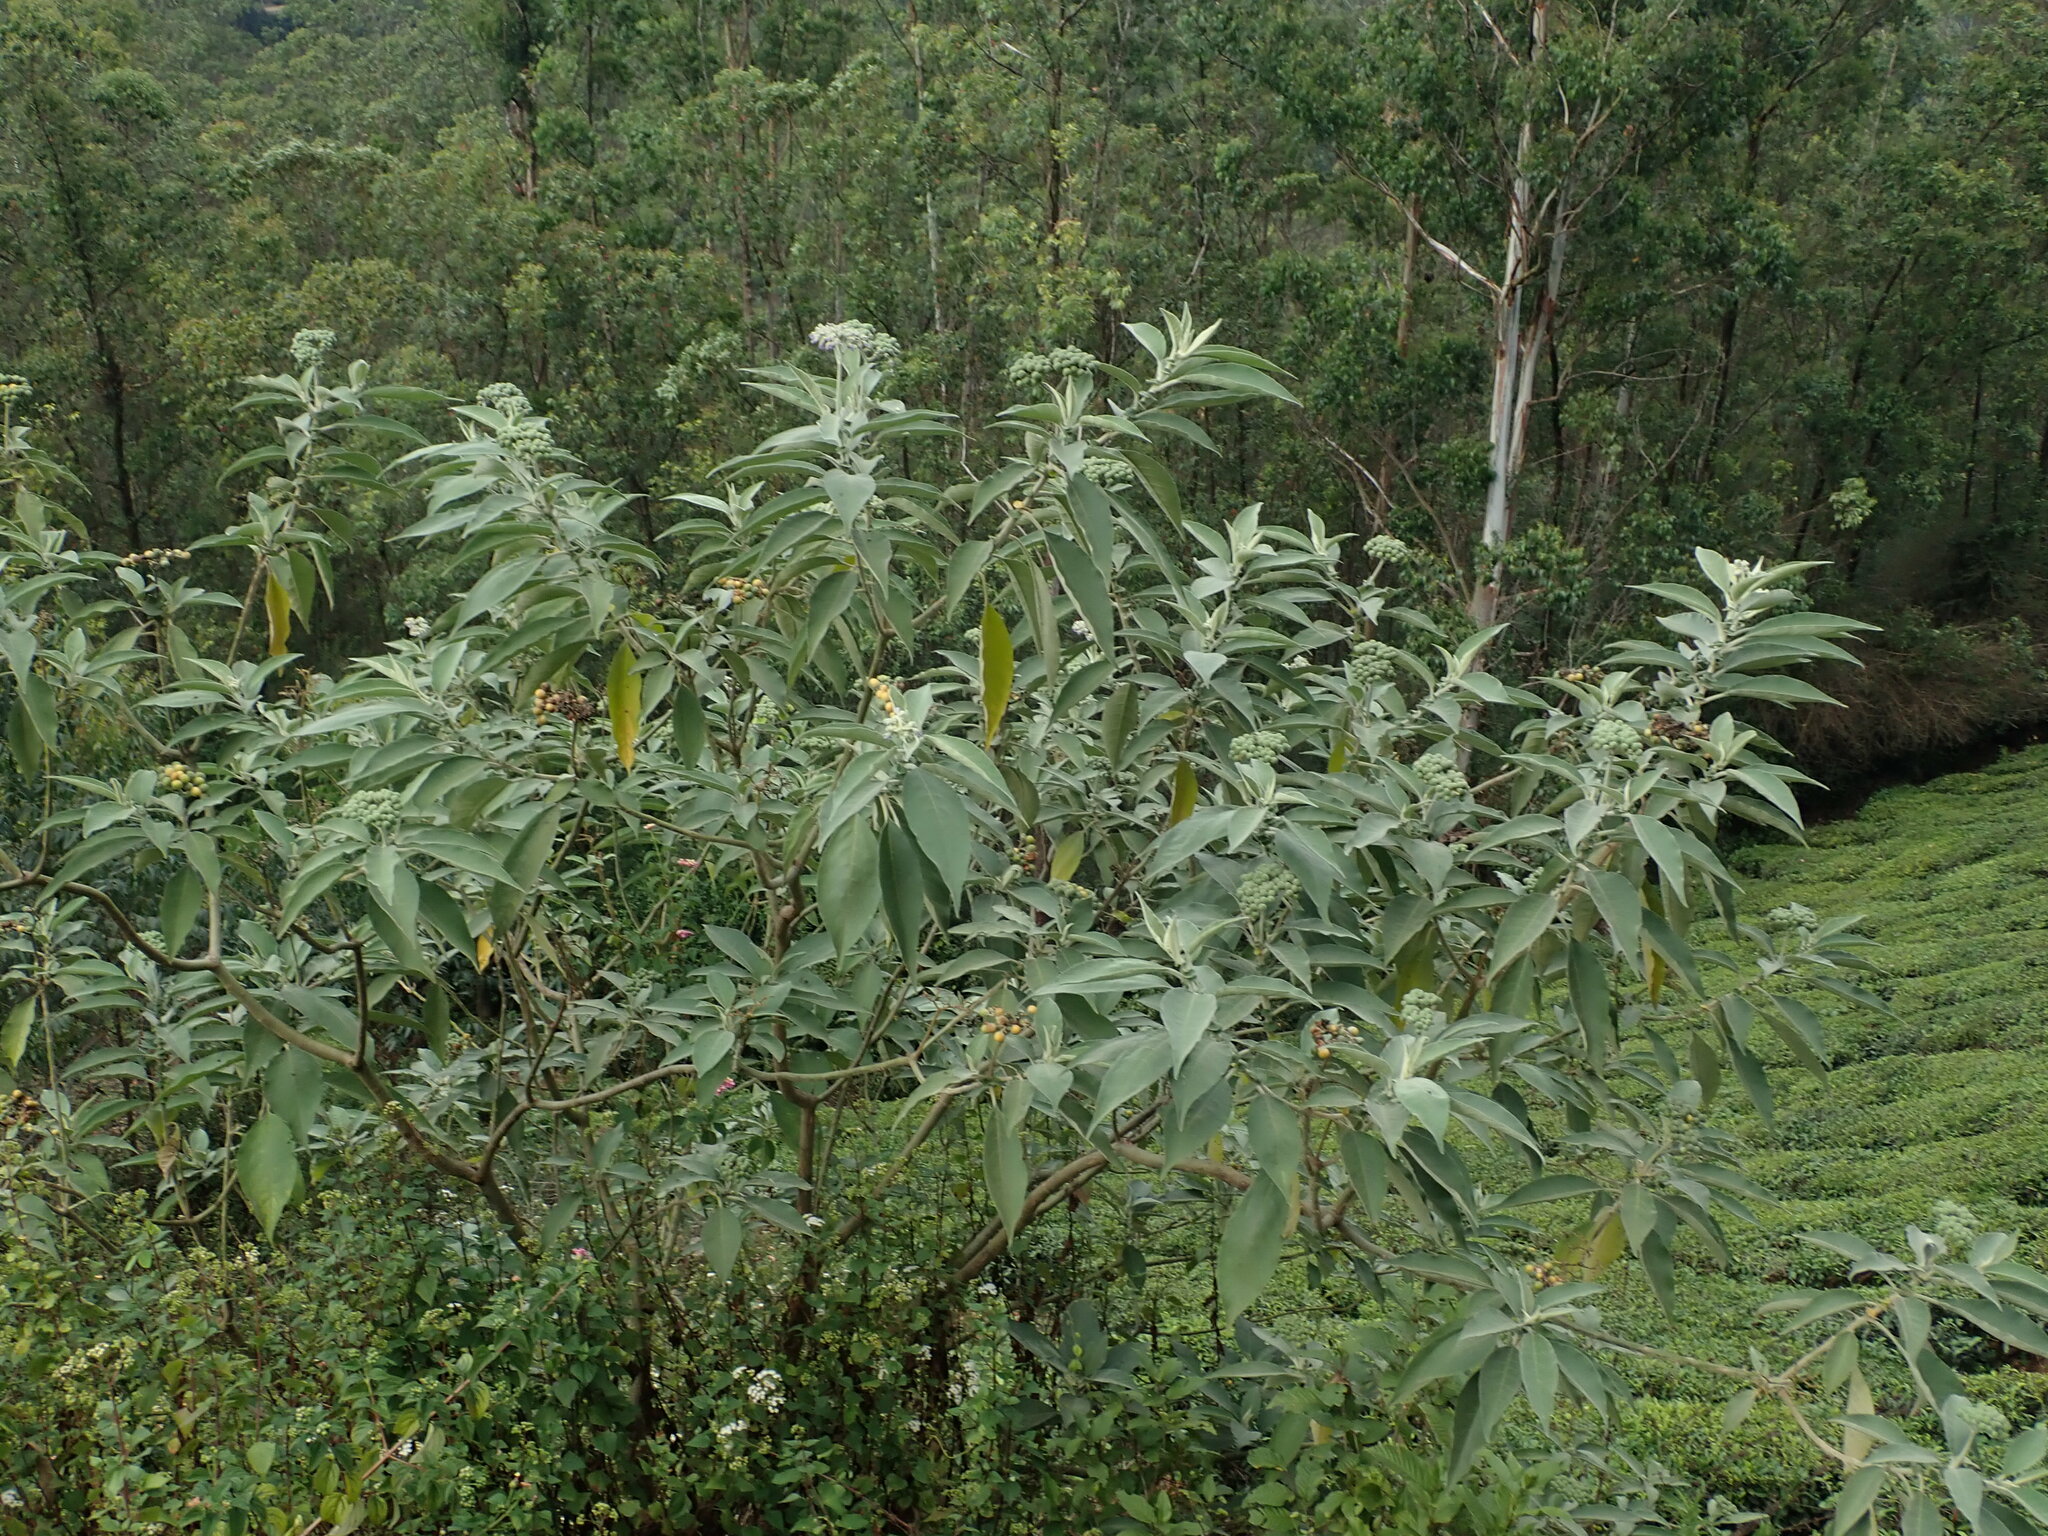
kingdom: Plantae
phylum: Tracheophyta
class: Magnoliopsida
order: Solanales
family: Solanaceae
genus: Solanum
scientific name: Solanum mauritianum
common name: Earleaf nightshade
